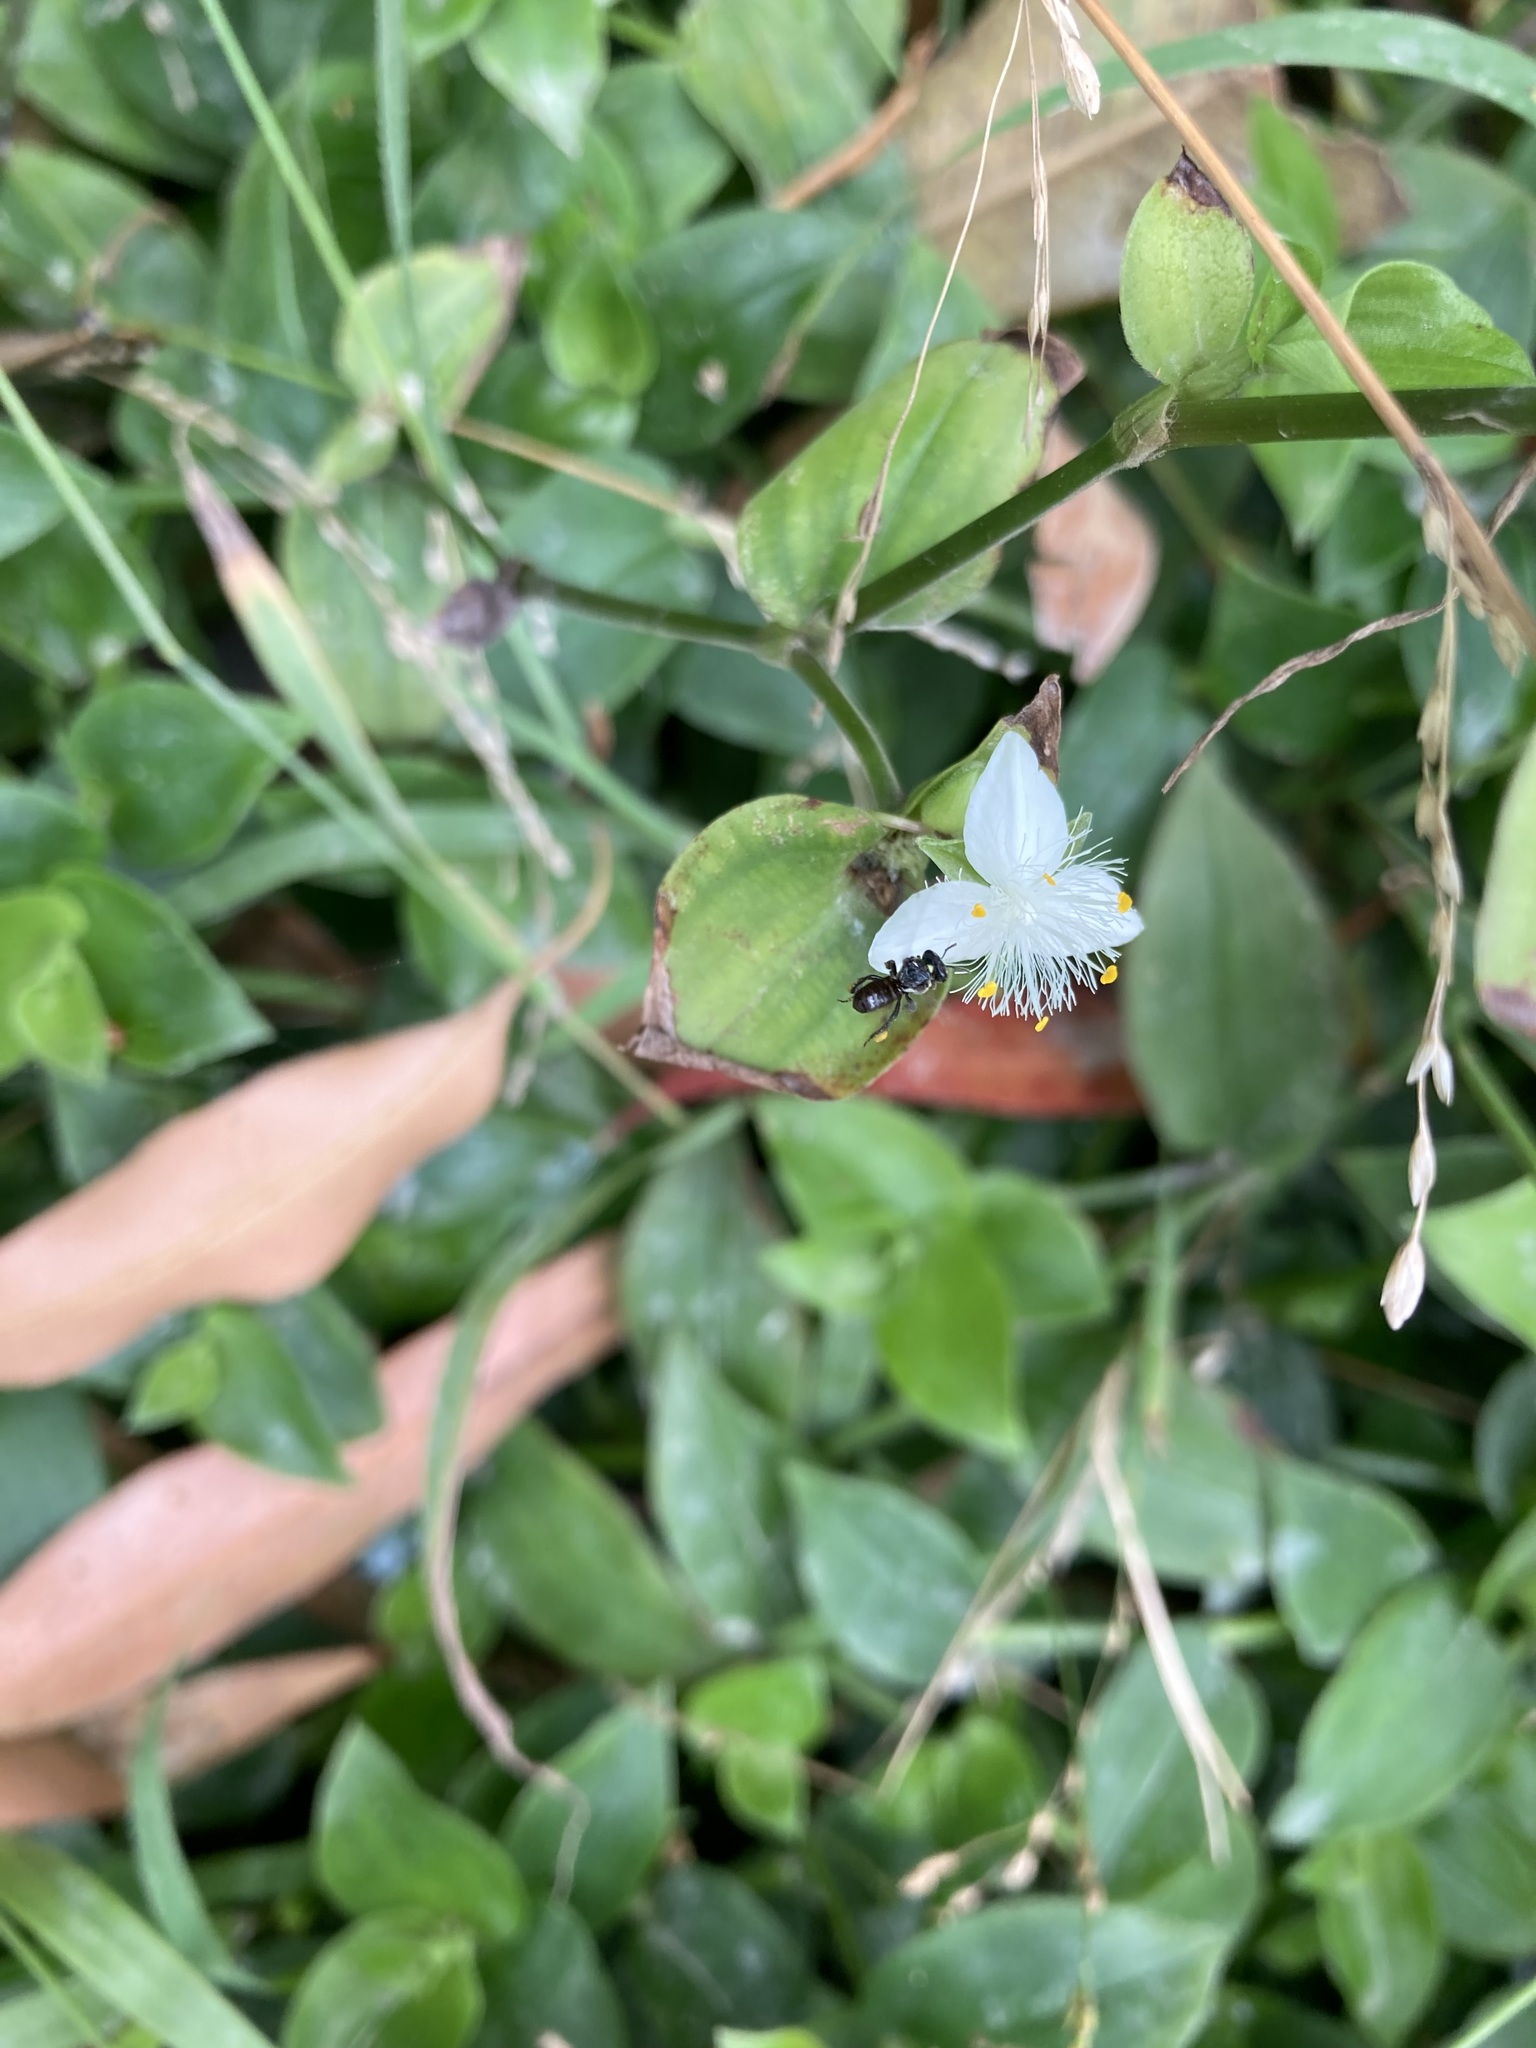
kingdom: Plantae
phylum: Tracheophyta
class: Liliopsida
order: Commelinales
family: Commelinaceae
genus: Tradescantia
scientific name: Tradescantia fluminensis
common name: Wandering-jew
